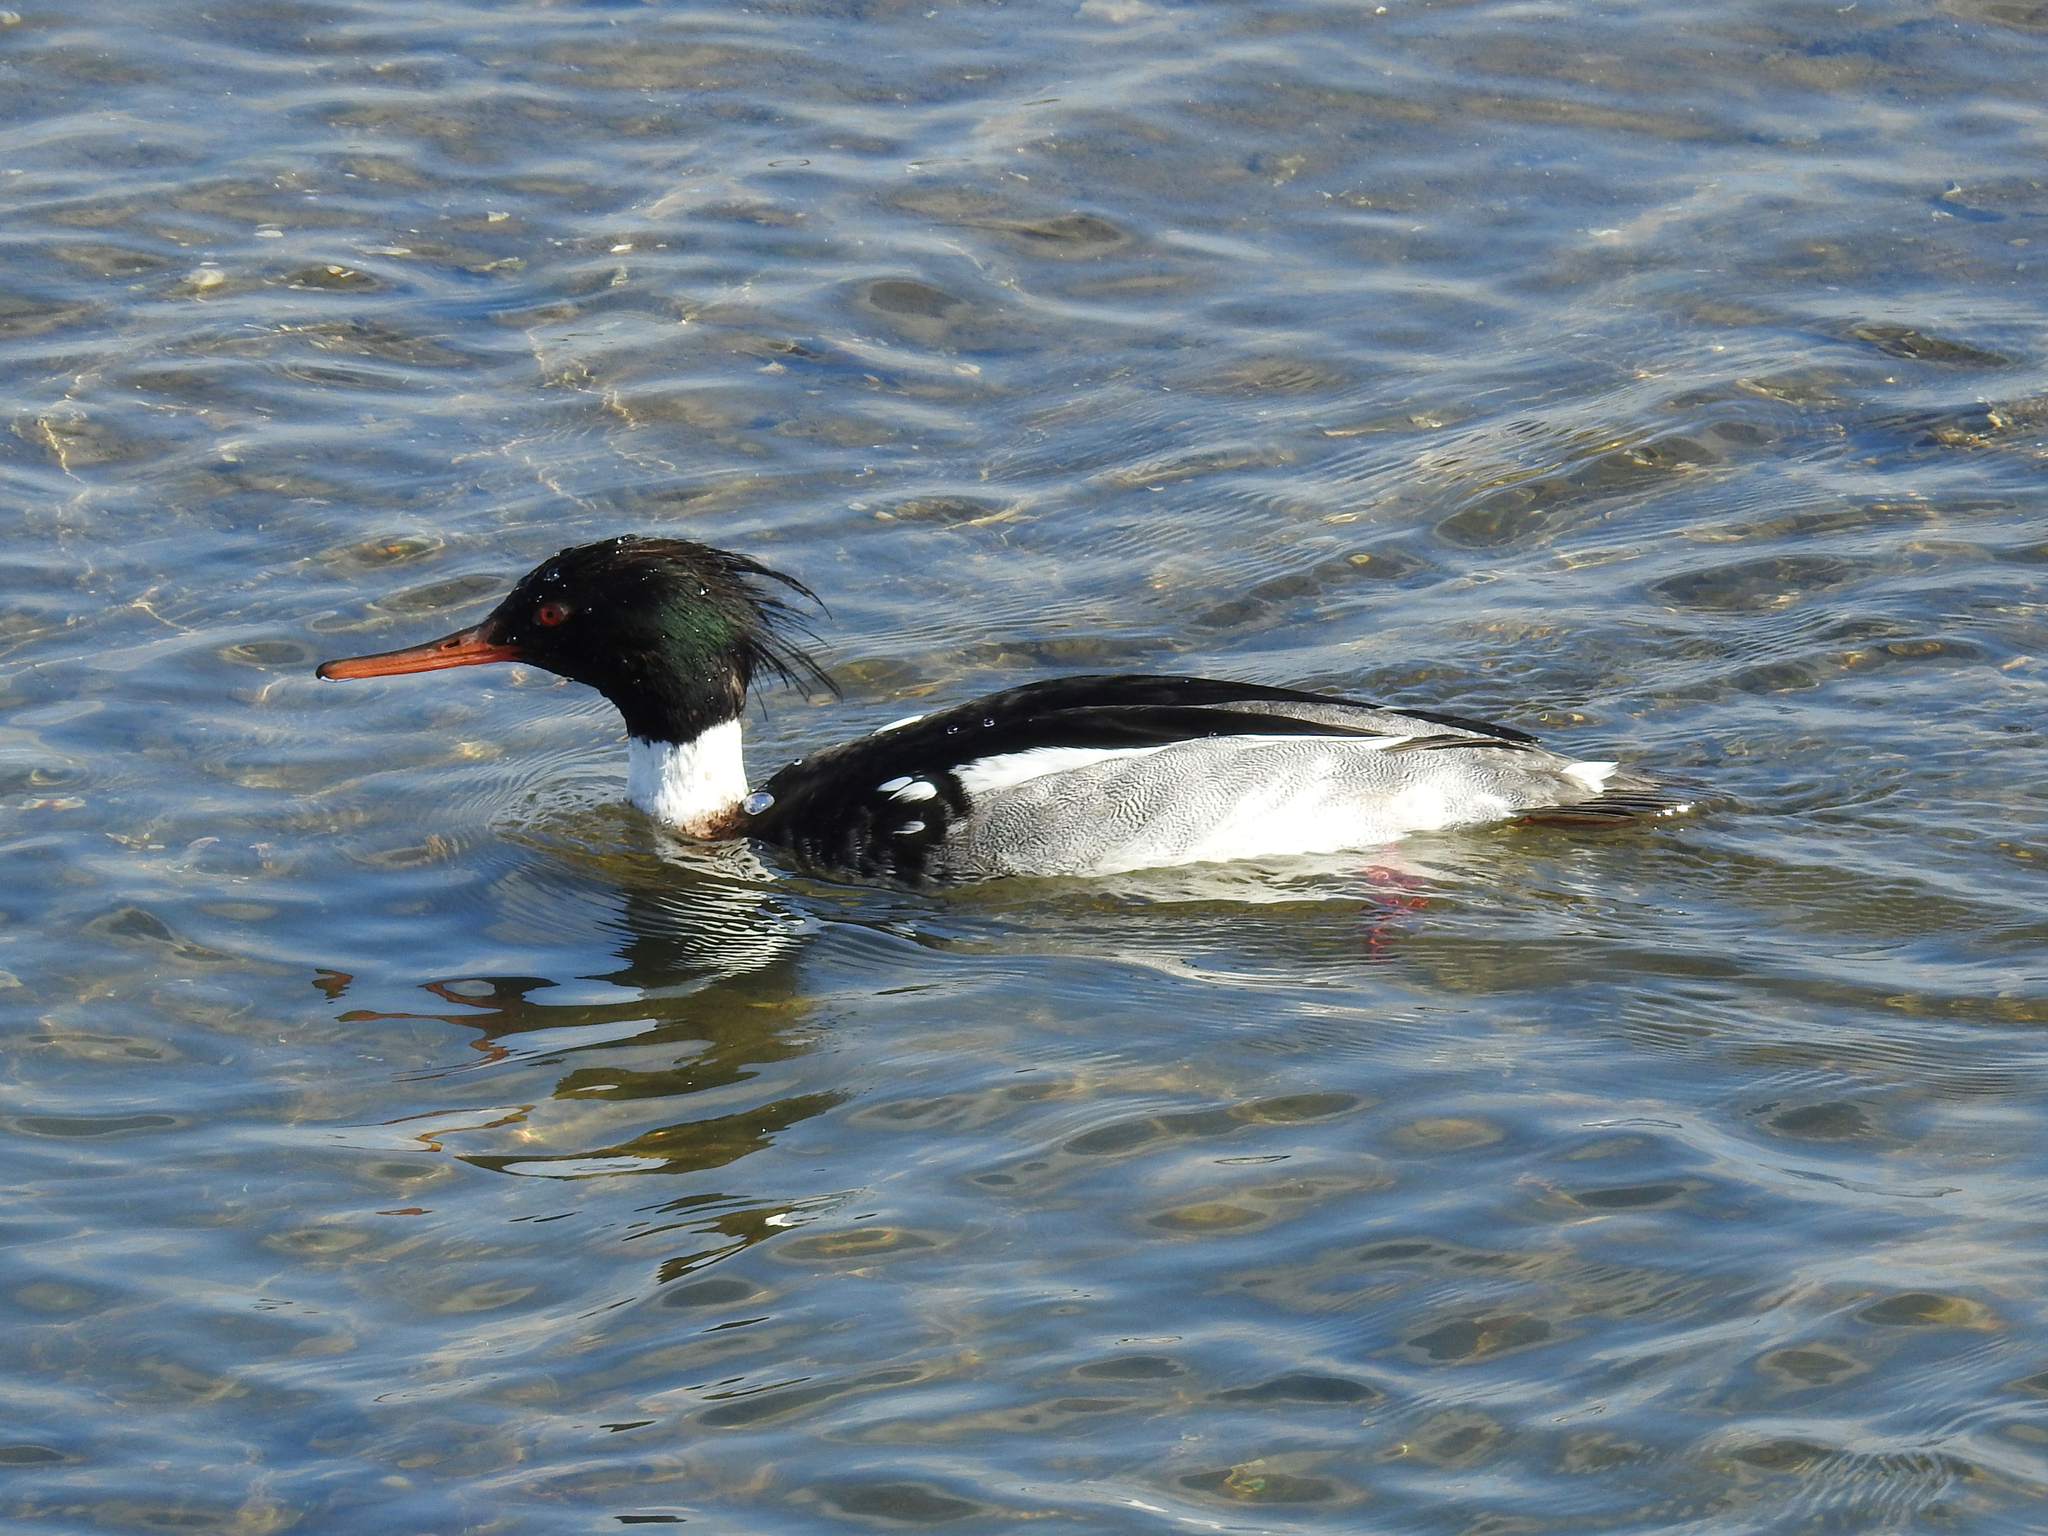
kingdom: Animalia
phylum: Chordata
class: Aves
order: Anseriformes
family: Anatidae
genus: Mergus
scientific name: Mergus serrator
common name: Red-breasted merganser
